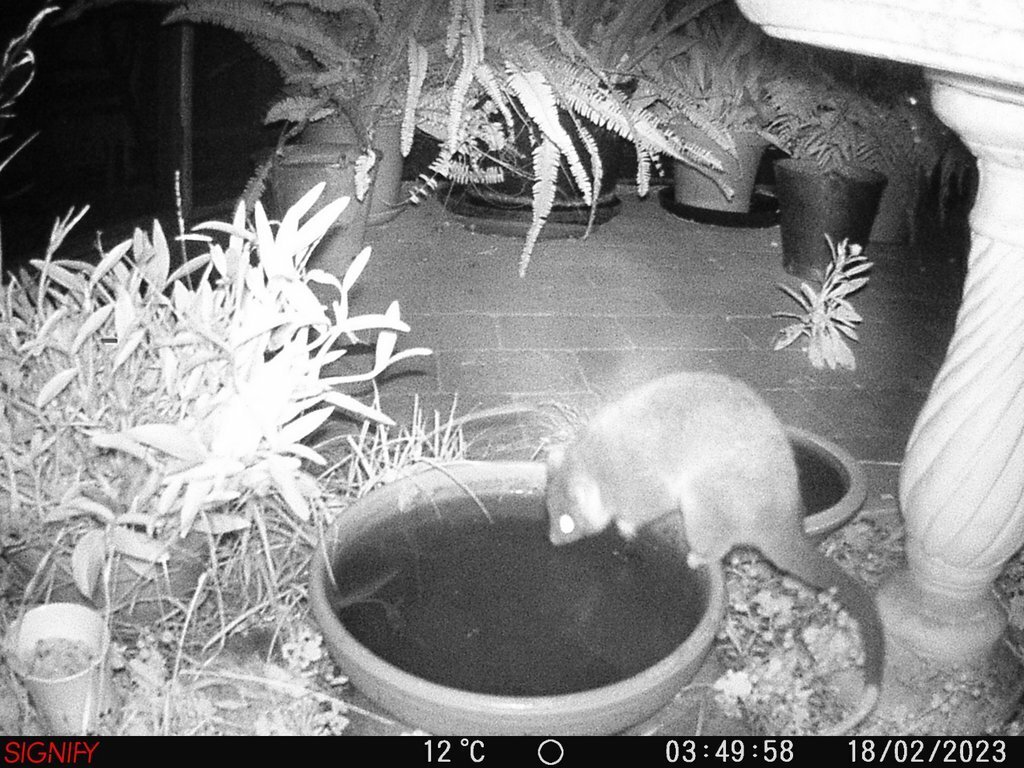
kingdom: Animalia
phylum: Chordata
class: Mammalia
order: Diprotodontia
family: Pseudocheiridae
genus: Pseudocheirus
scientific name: Pseudocheirus peregrinus
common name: Common ringtail possum
